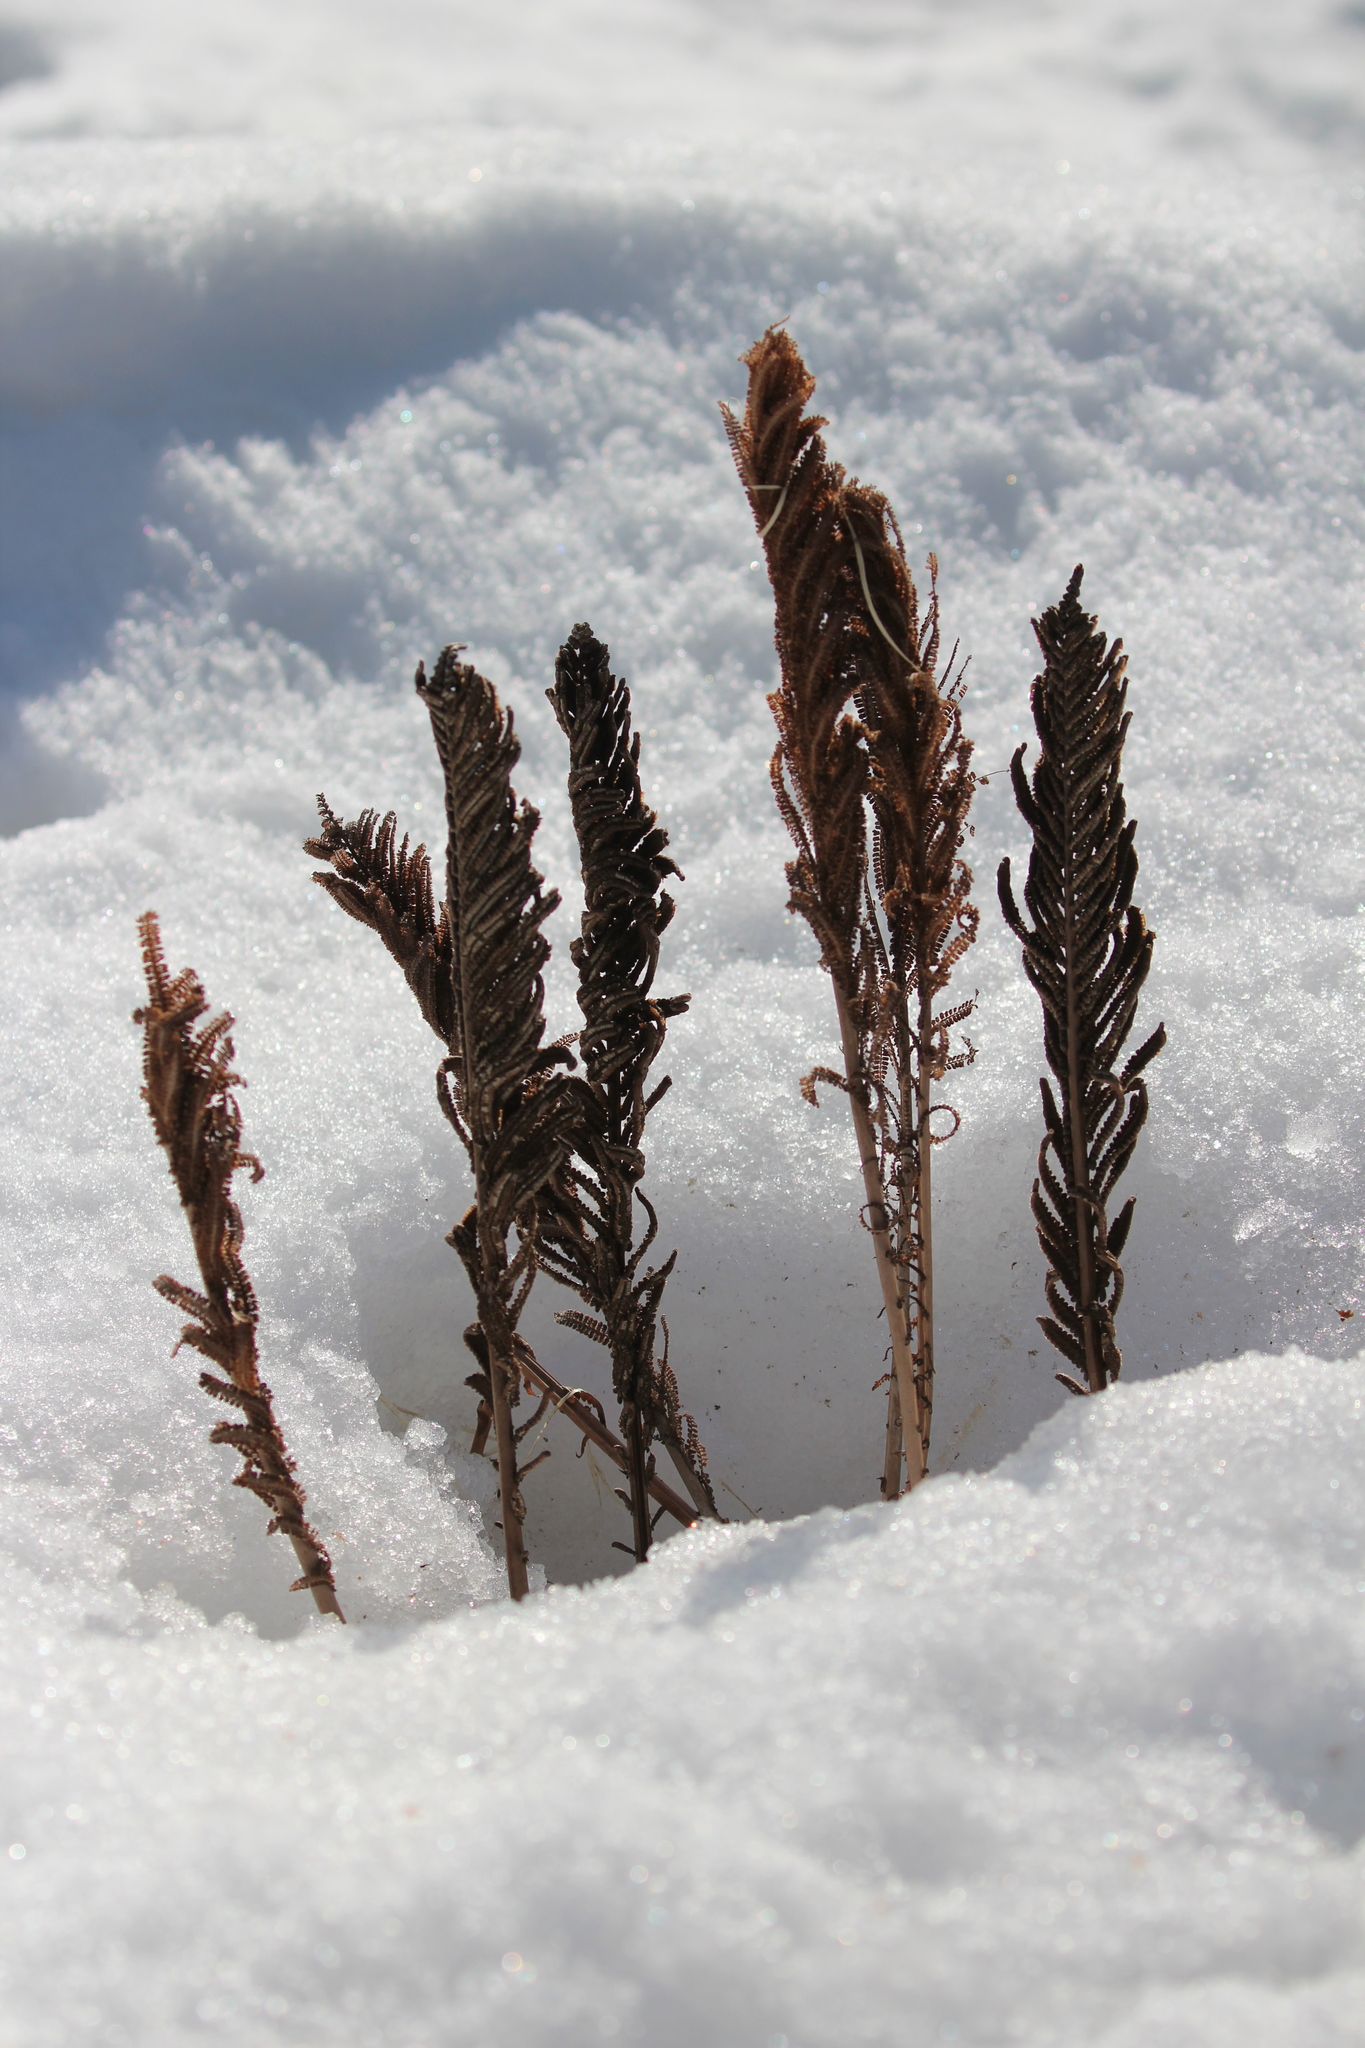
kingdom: Plantae
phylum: Tracheophyta
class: Polypodiopsida
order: Polypodiales
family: Onocleaceae
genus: Matteuccia
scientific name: Matteuccia struthiopteris
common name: Ostrich fern
